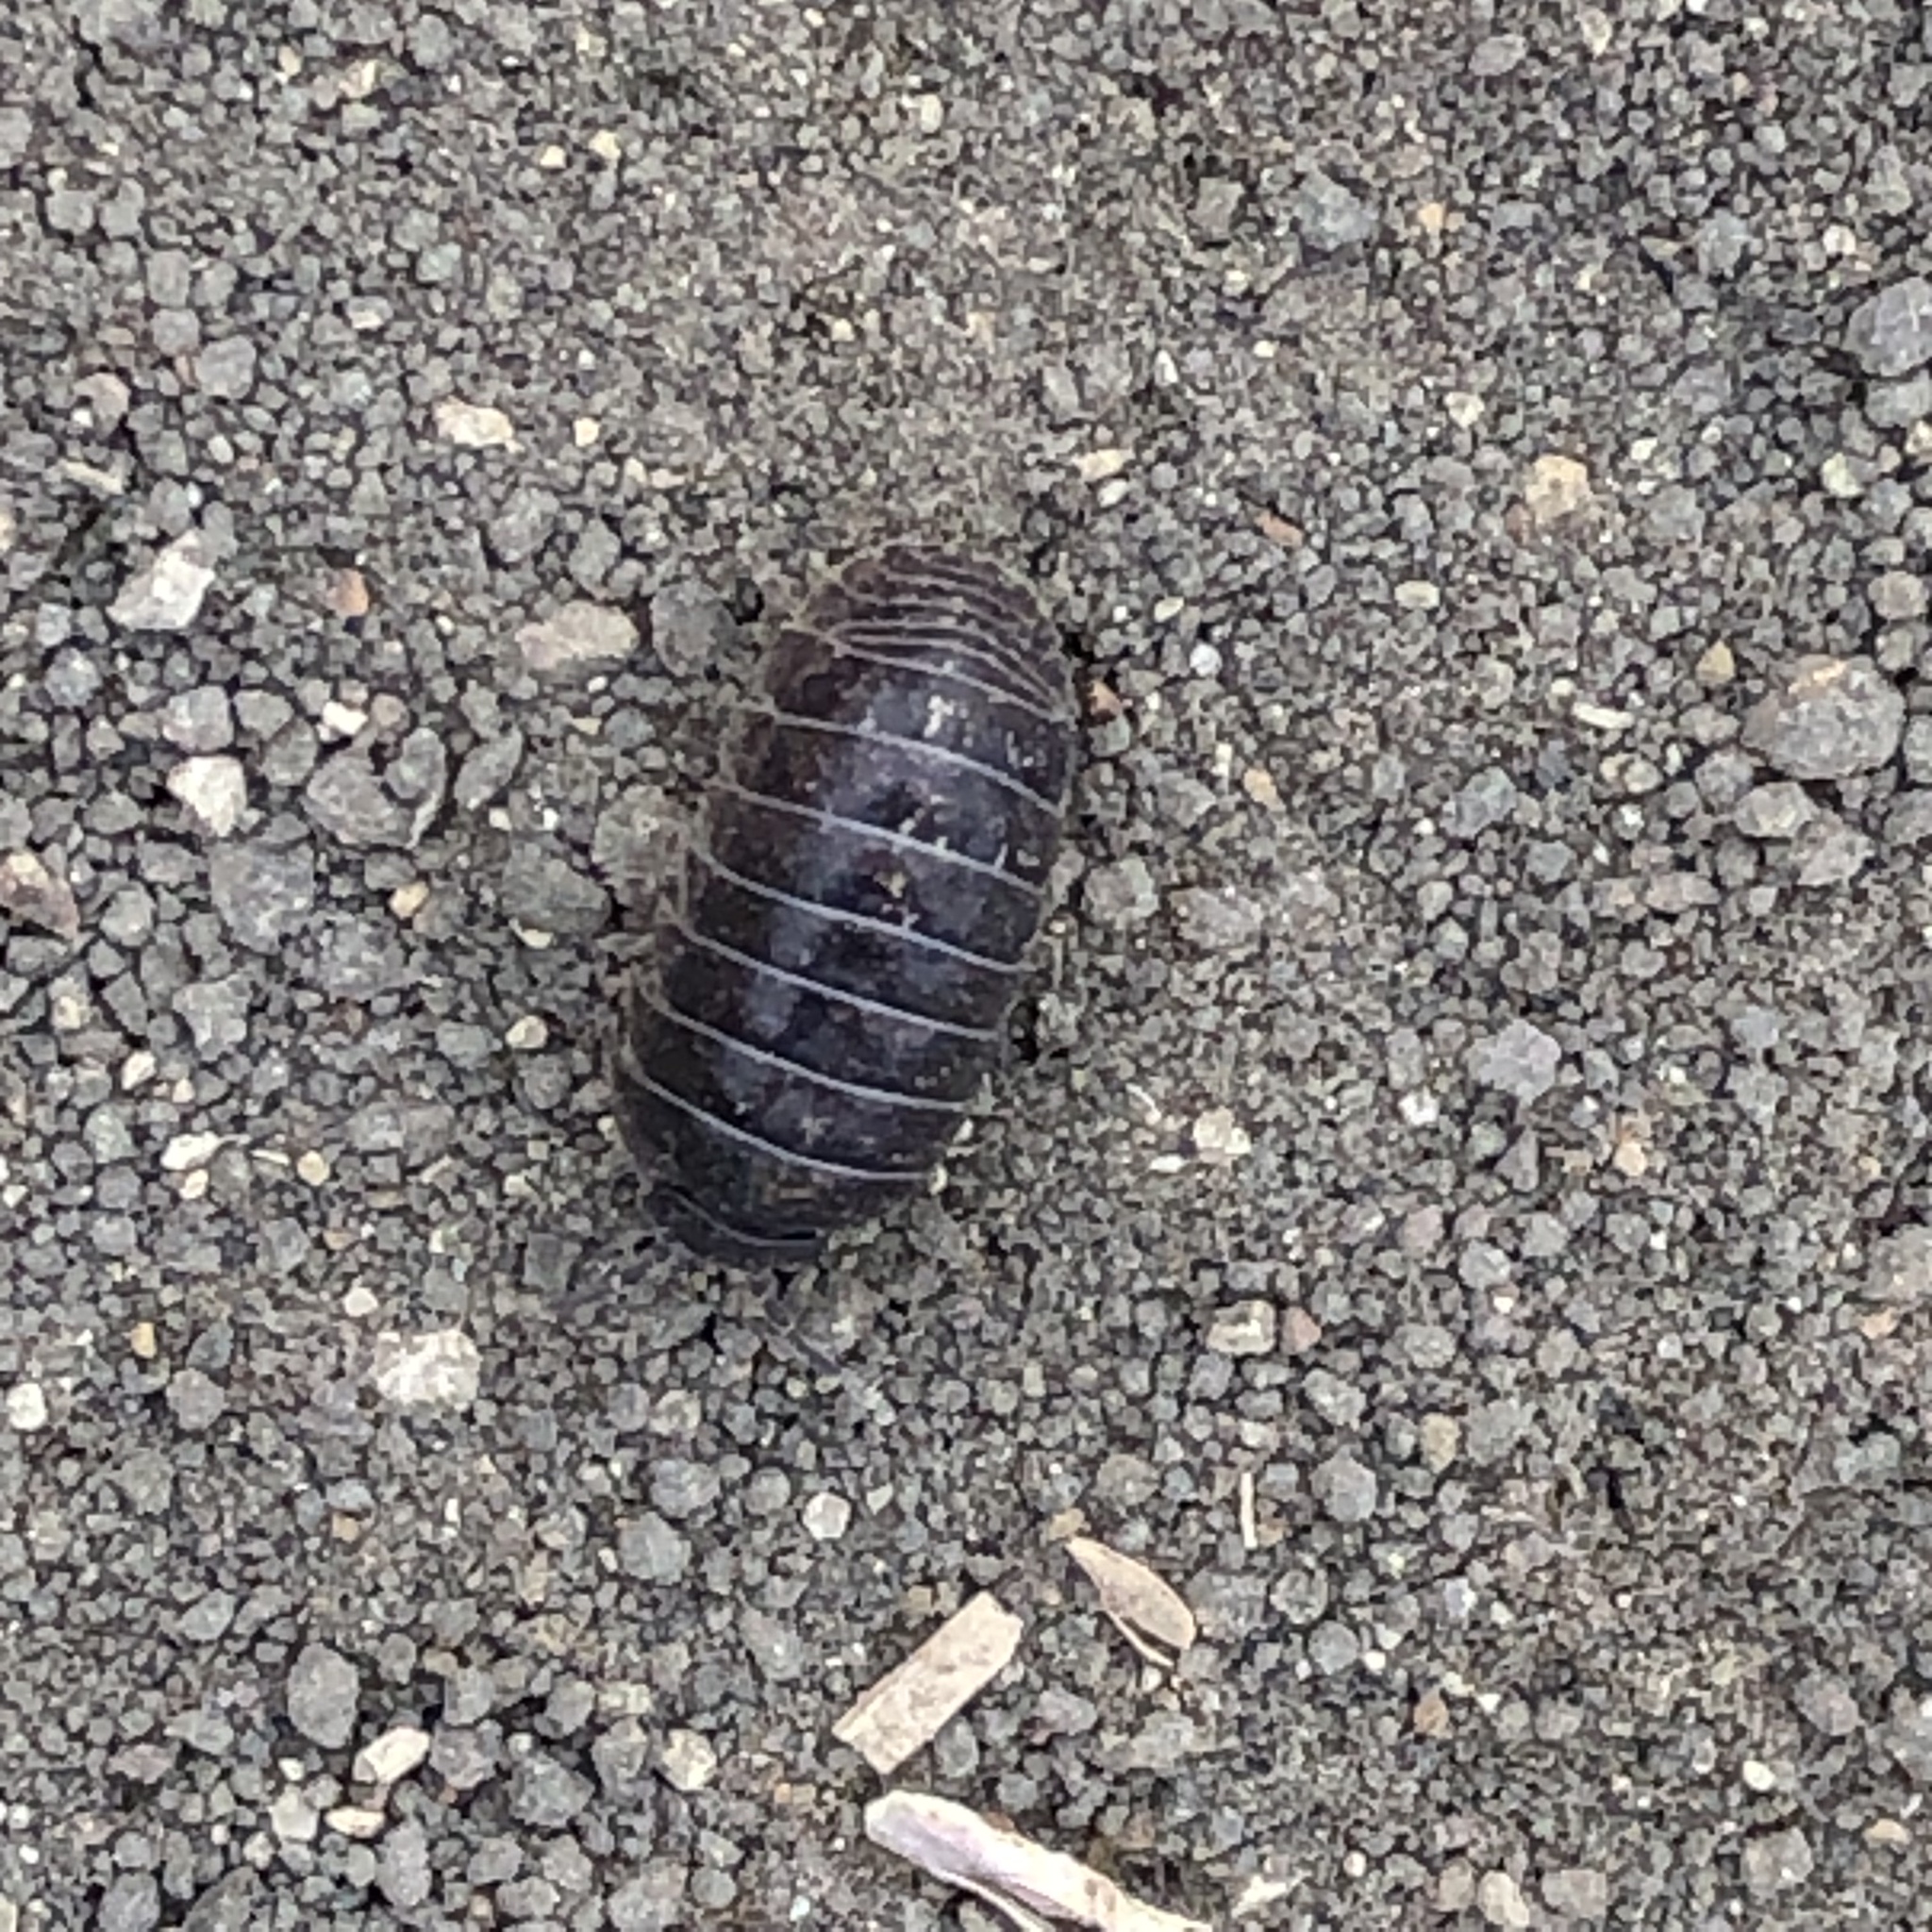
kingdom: Animalia
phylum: Arthropoda
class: Malacostraca
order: Isopoda
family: Armadillidiidae
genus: Armadillidium
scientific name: Armadillidium vulgare
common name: Common pill woodlouse
